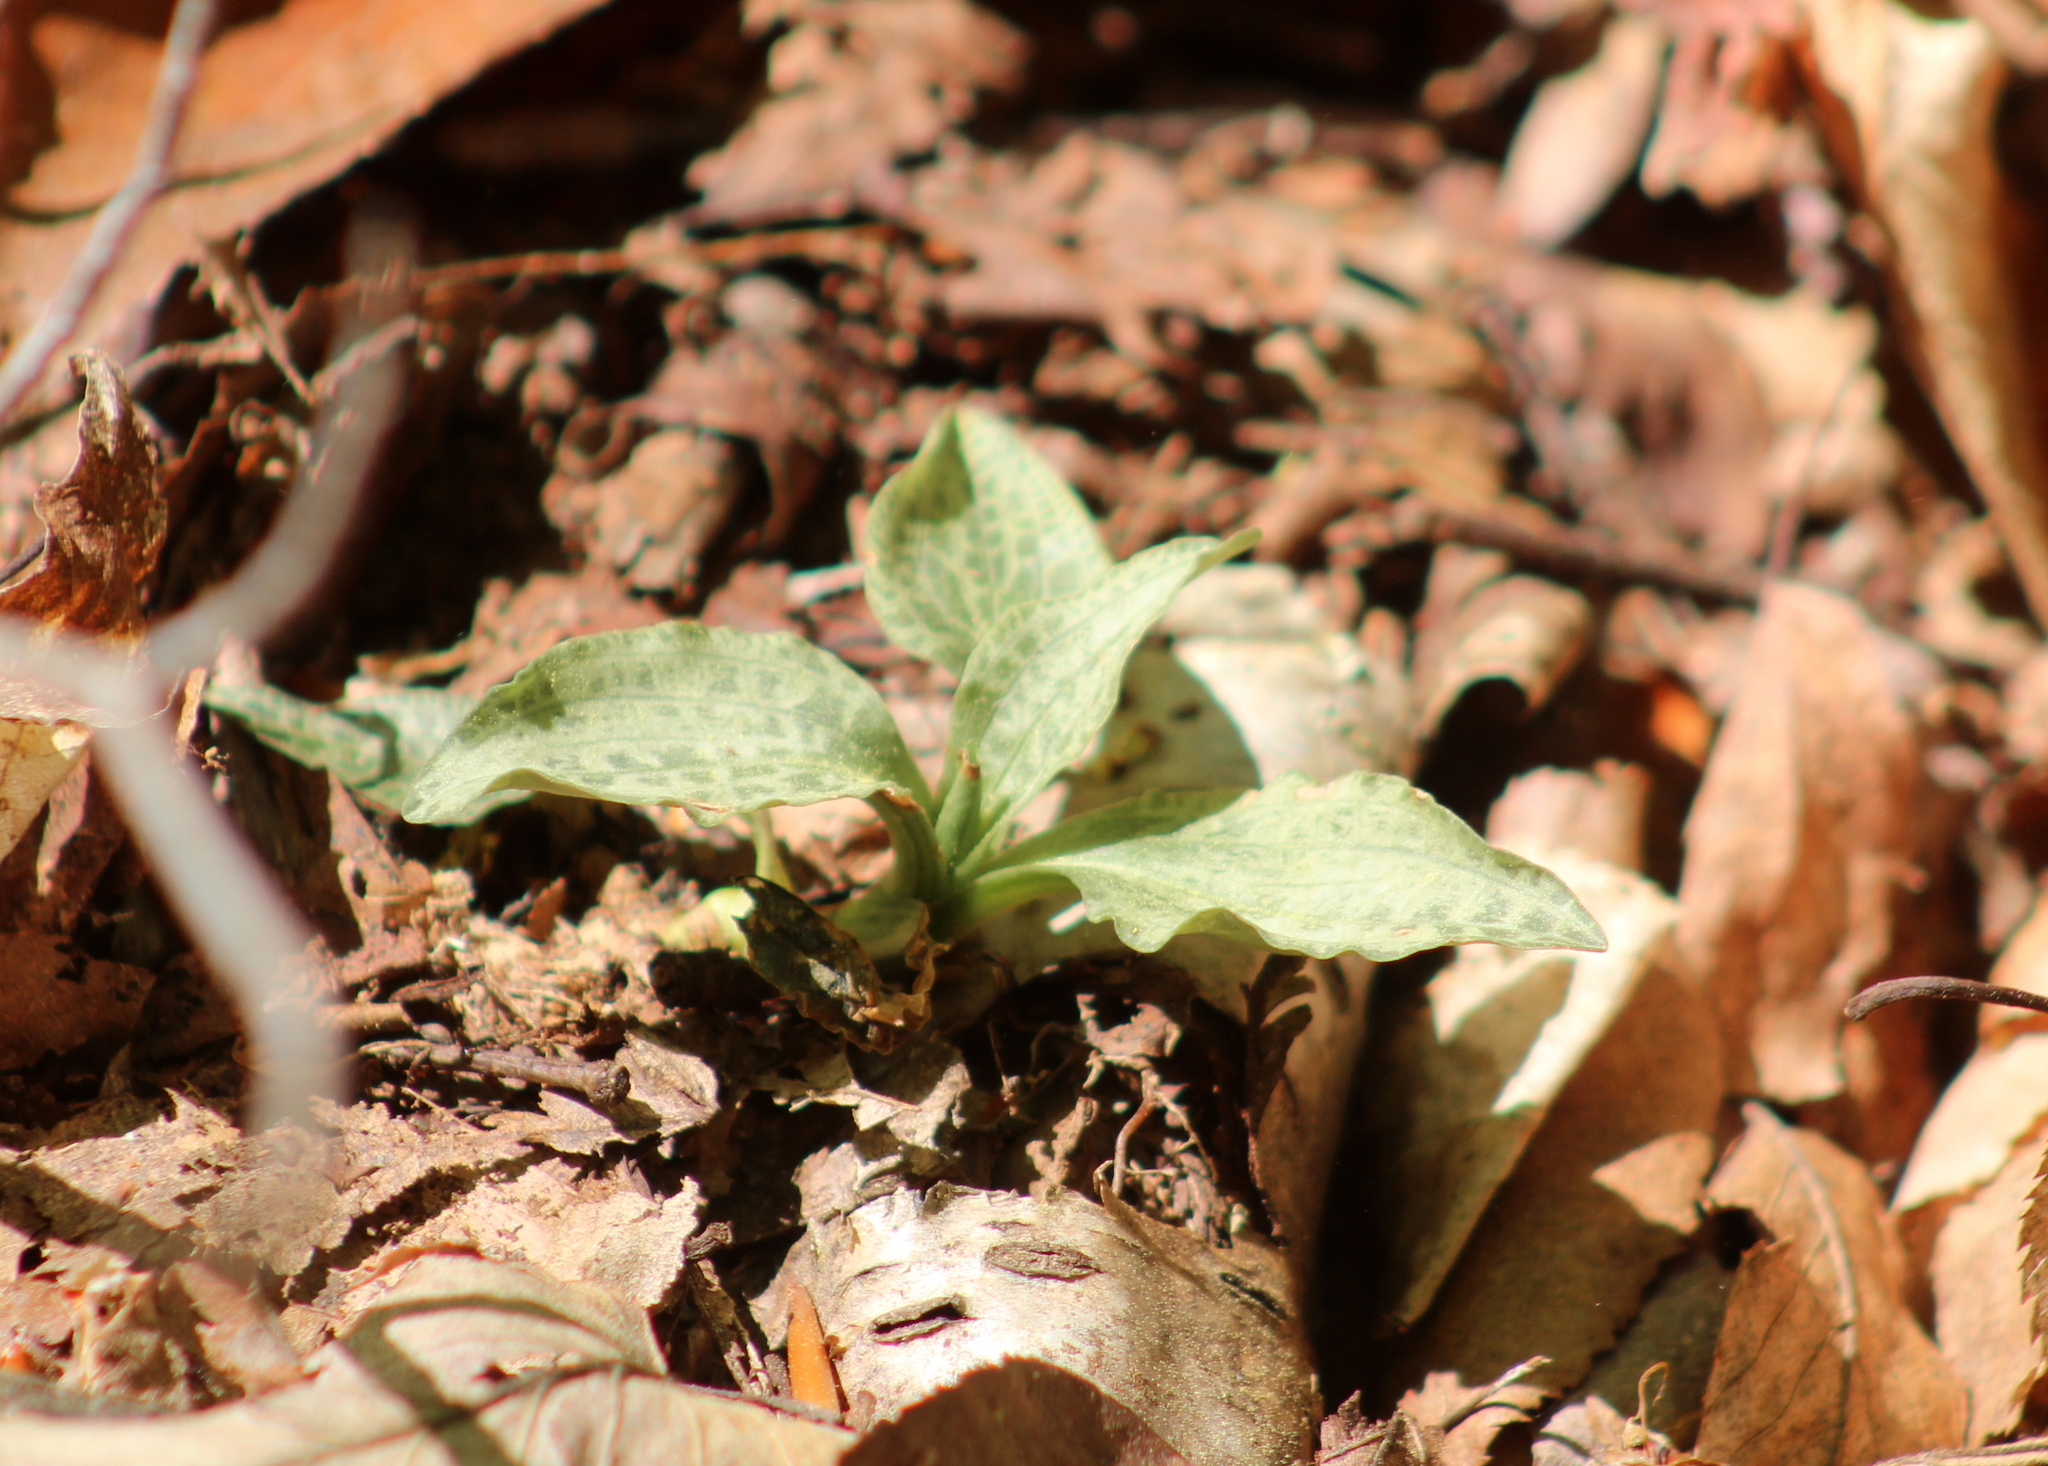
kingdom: Plantae
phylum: Tracheophyta
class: Liliopsida
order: Asparagales
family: Orchidaceae
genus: Goodyera
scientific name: Goodyera tesselata
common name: Checkered rattlesnake-plantain
